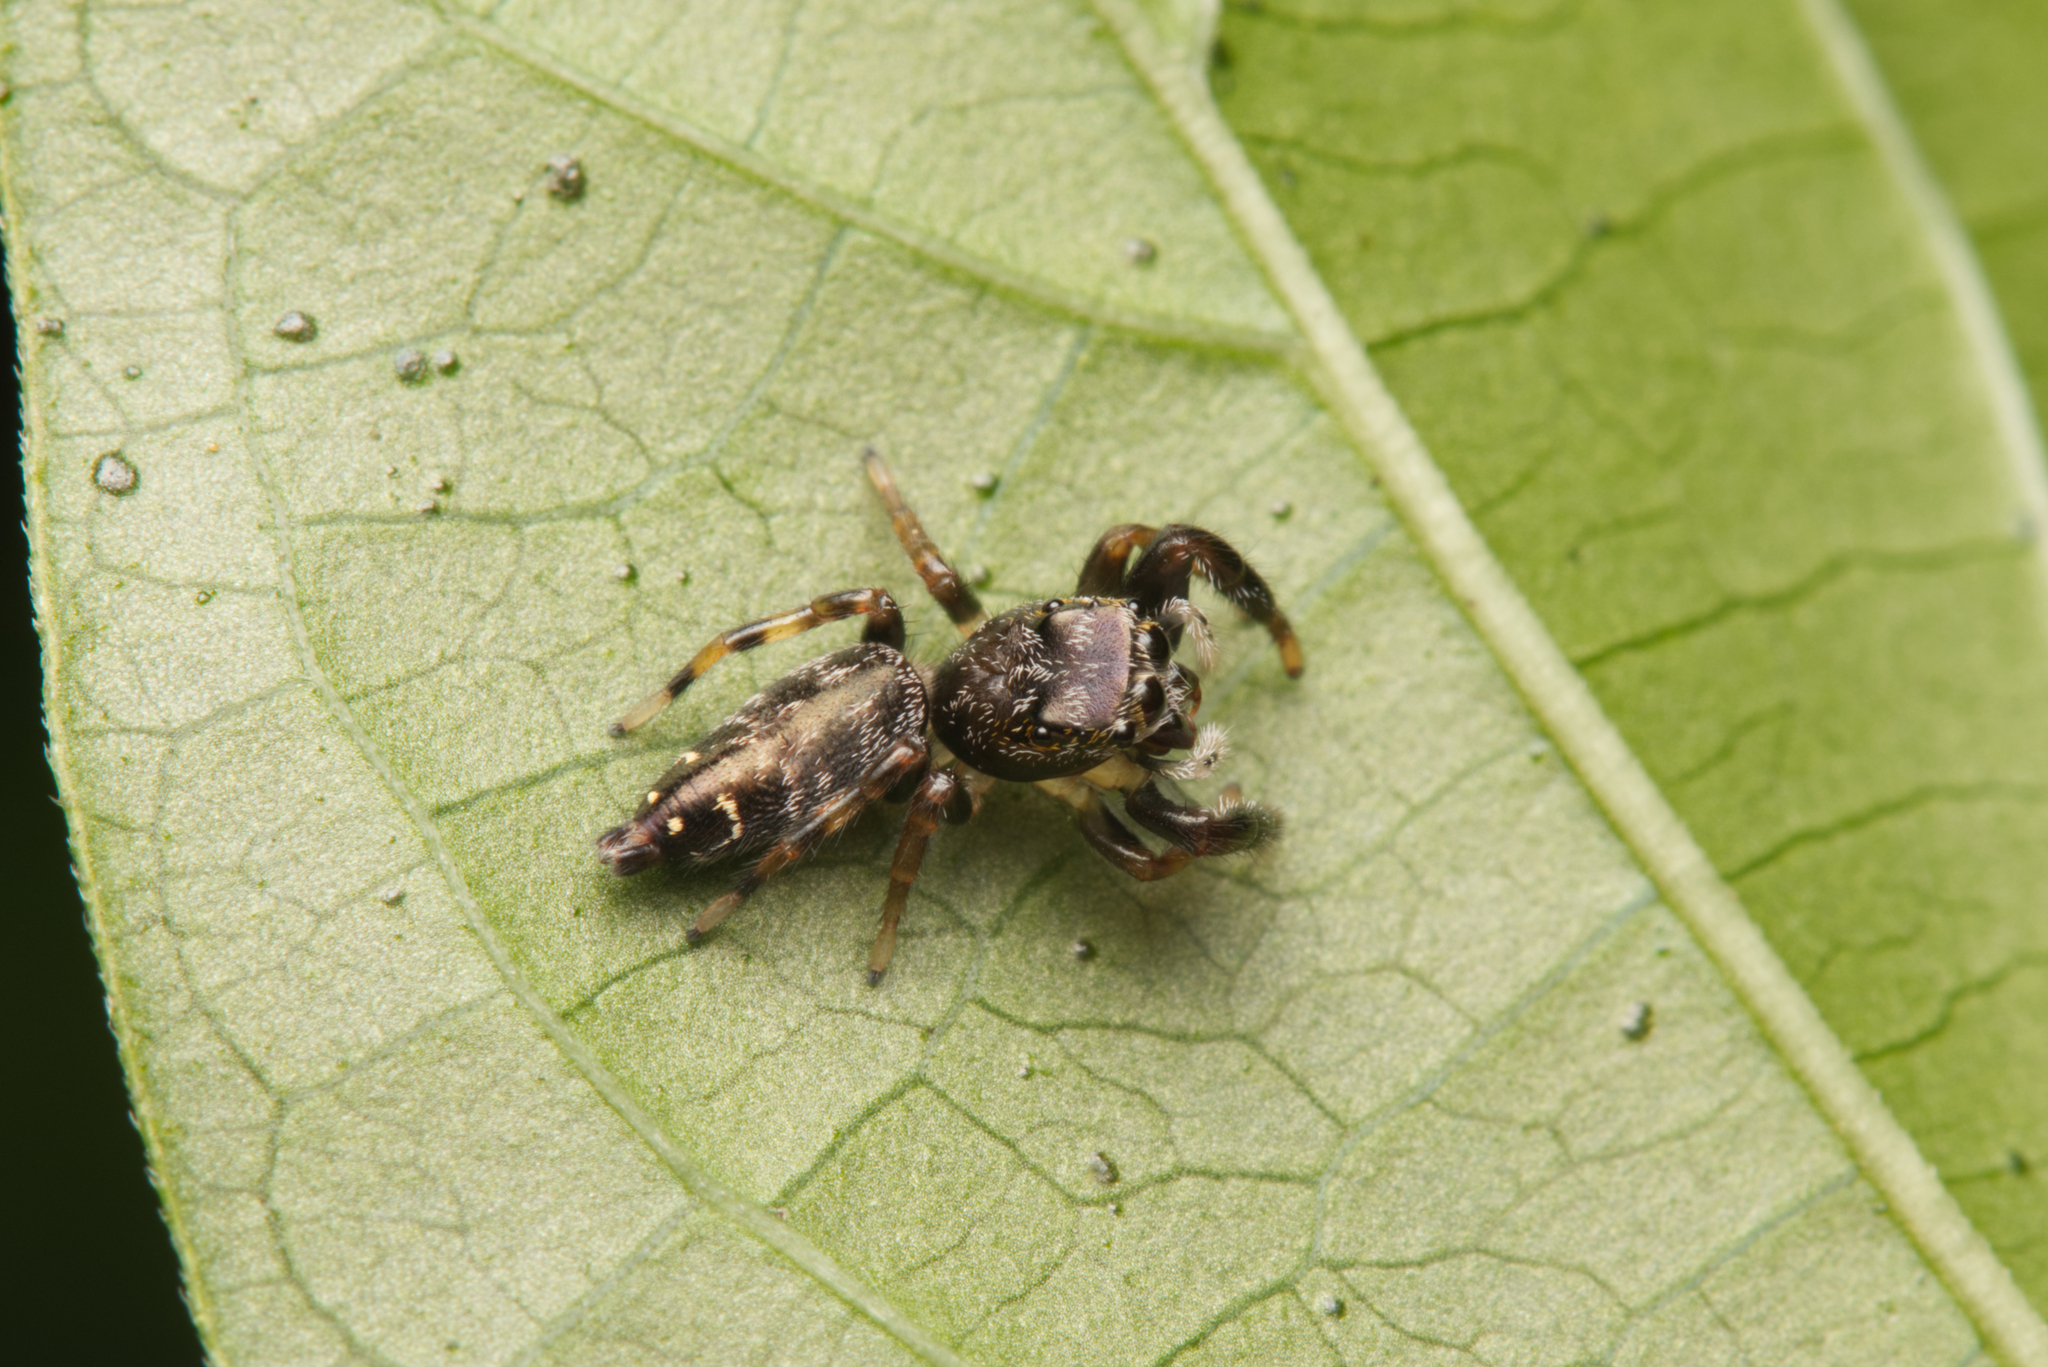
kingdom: Animalia
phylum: Arthropoda
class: Arachnida
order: Araneae
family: Salticidae
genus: Pungalina
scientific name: Pungalina plurilineata
